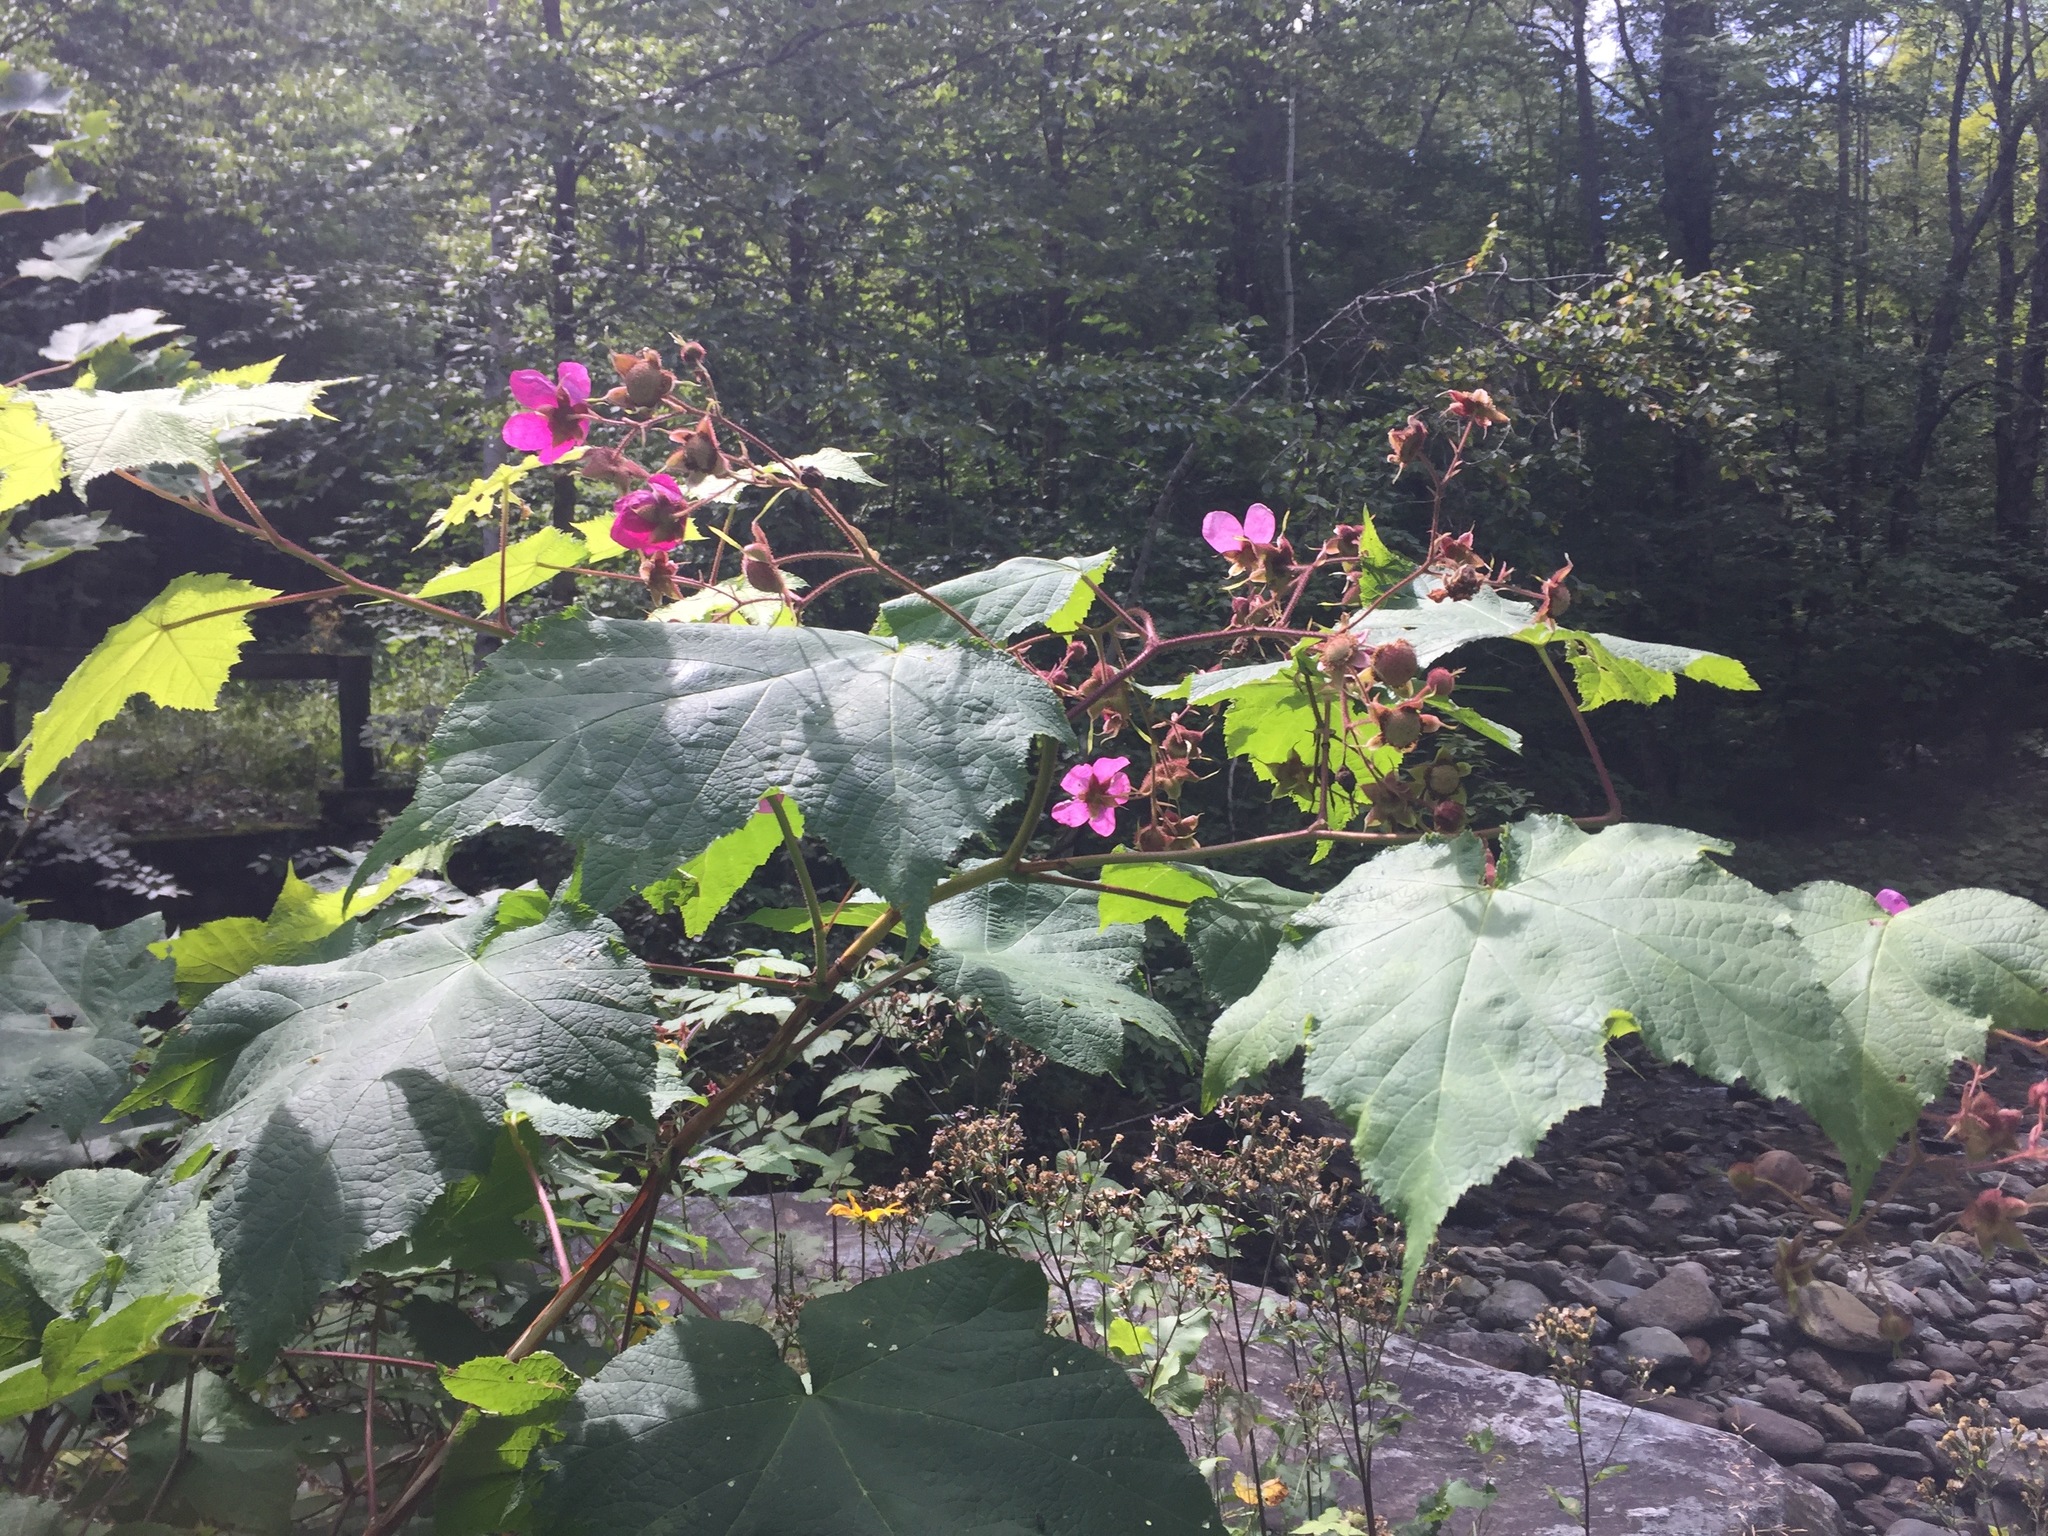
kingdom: Plantae
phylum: Tracheophyta
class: Magnoliopsida
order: Rosales
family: Rosaceae
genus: Rubus
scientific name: Rubus odoratus
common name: Purple-flowered raspberry
